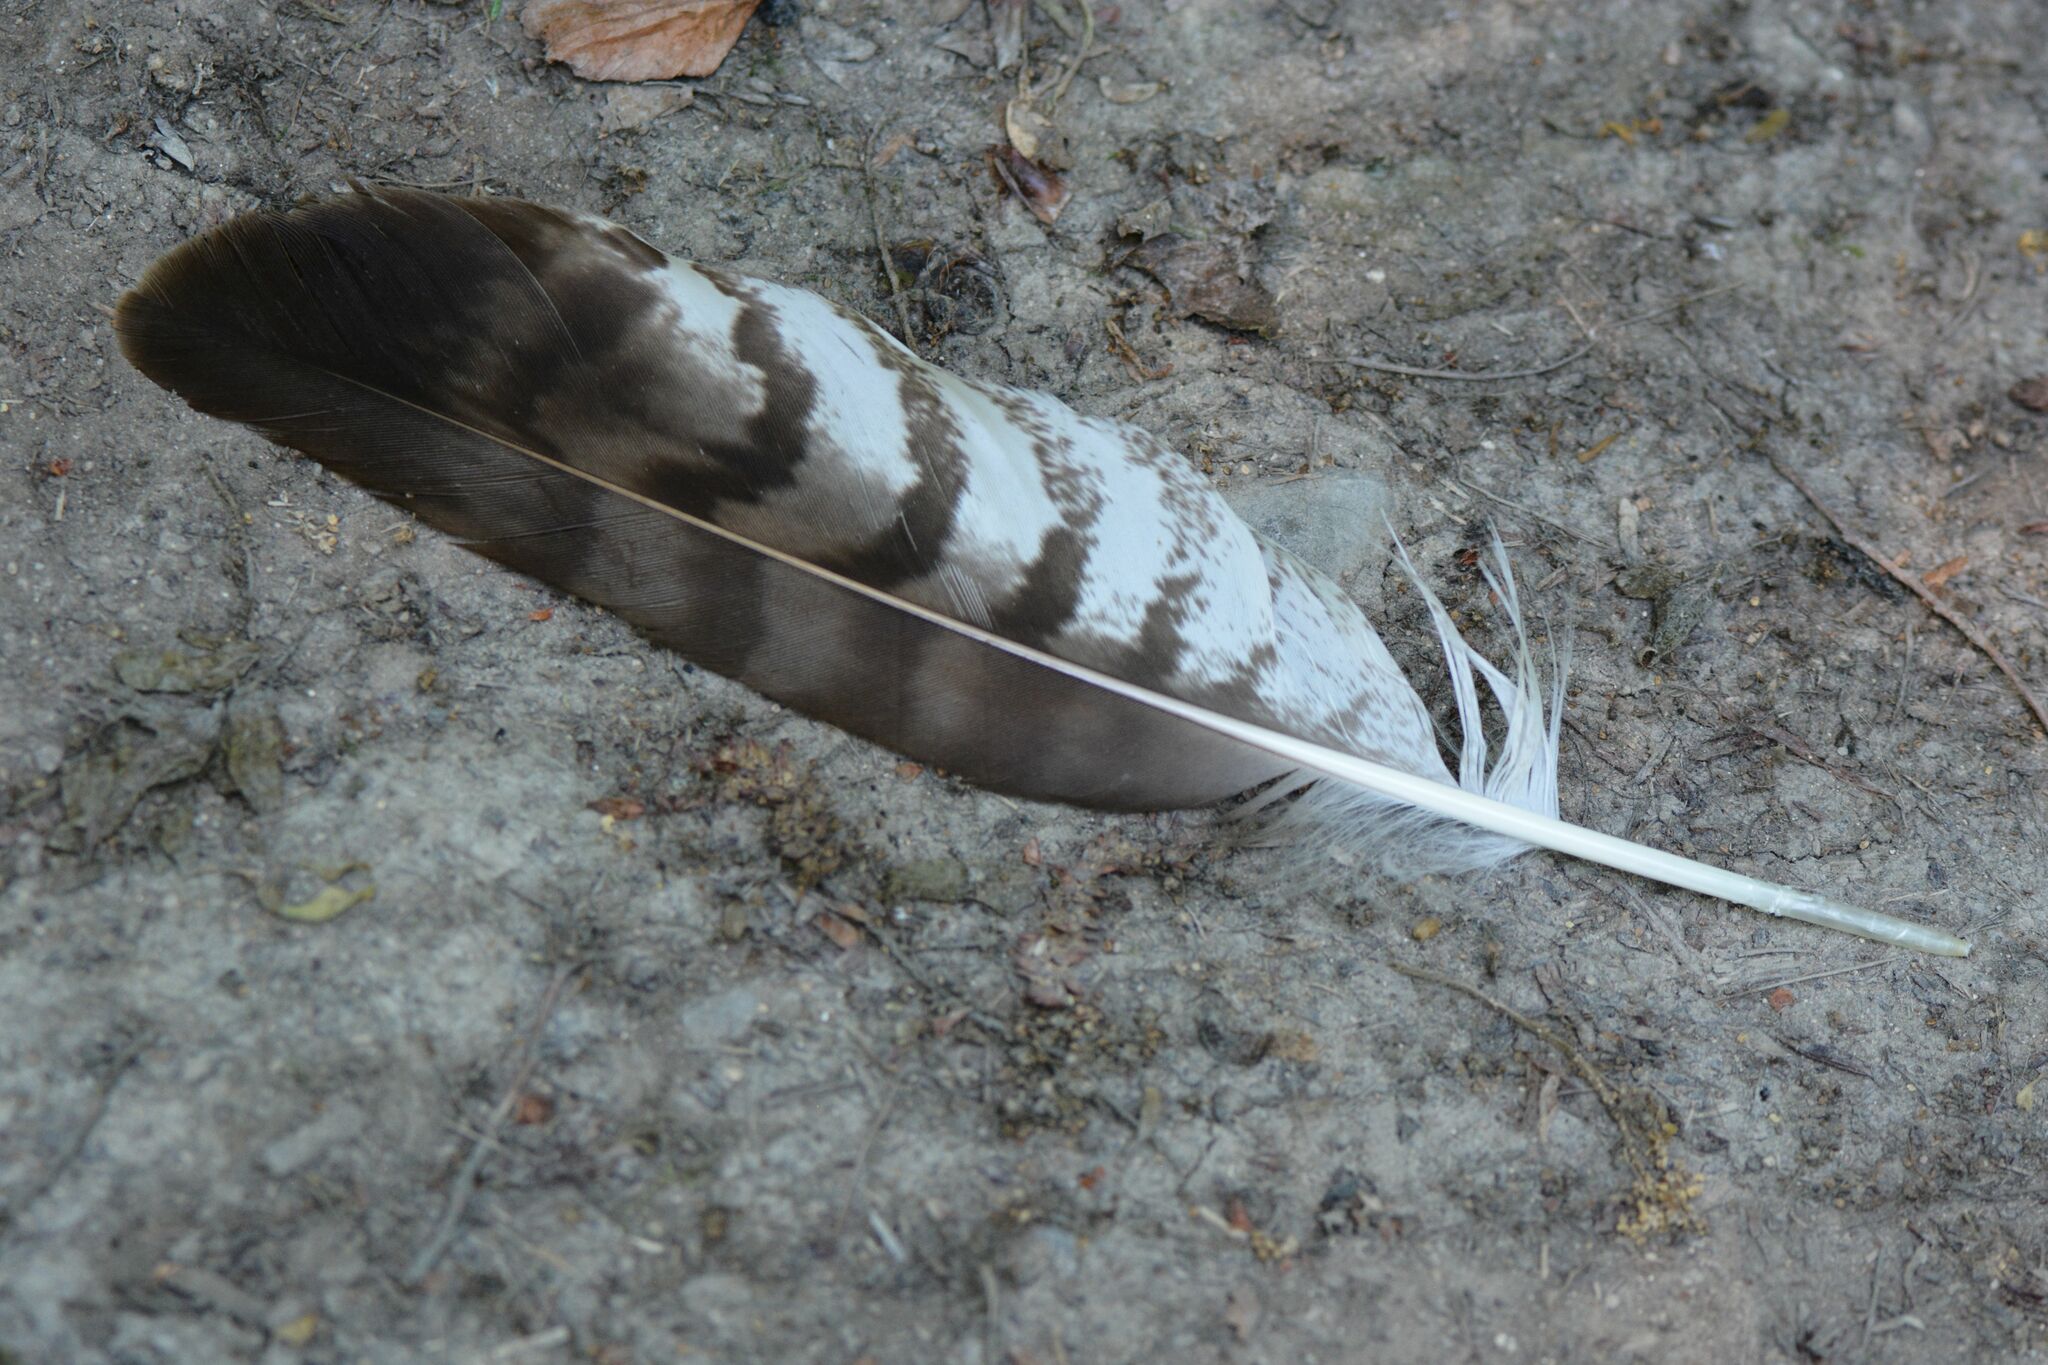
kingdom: Animalia
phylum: Chordata
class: Aves
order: Accipitriformes
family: Accipitridae
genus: Buteo
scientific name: Buteo buteo
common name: Common buzzard
